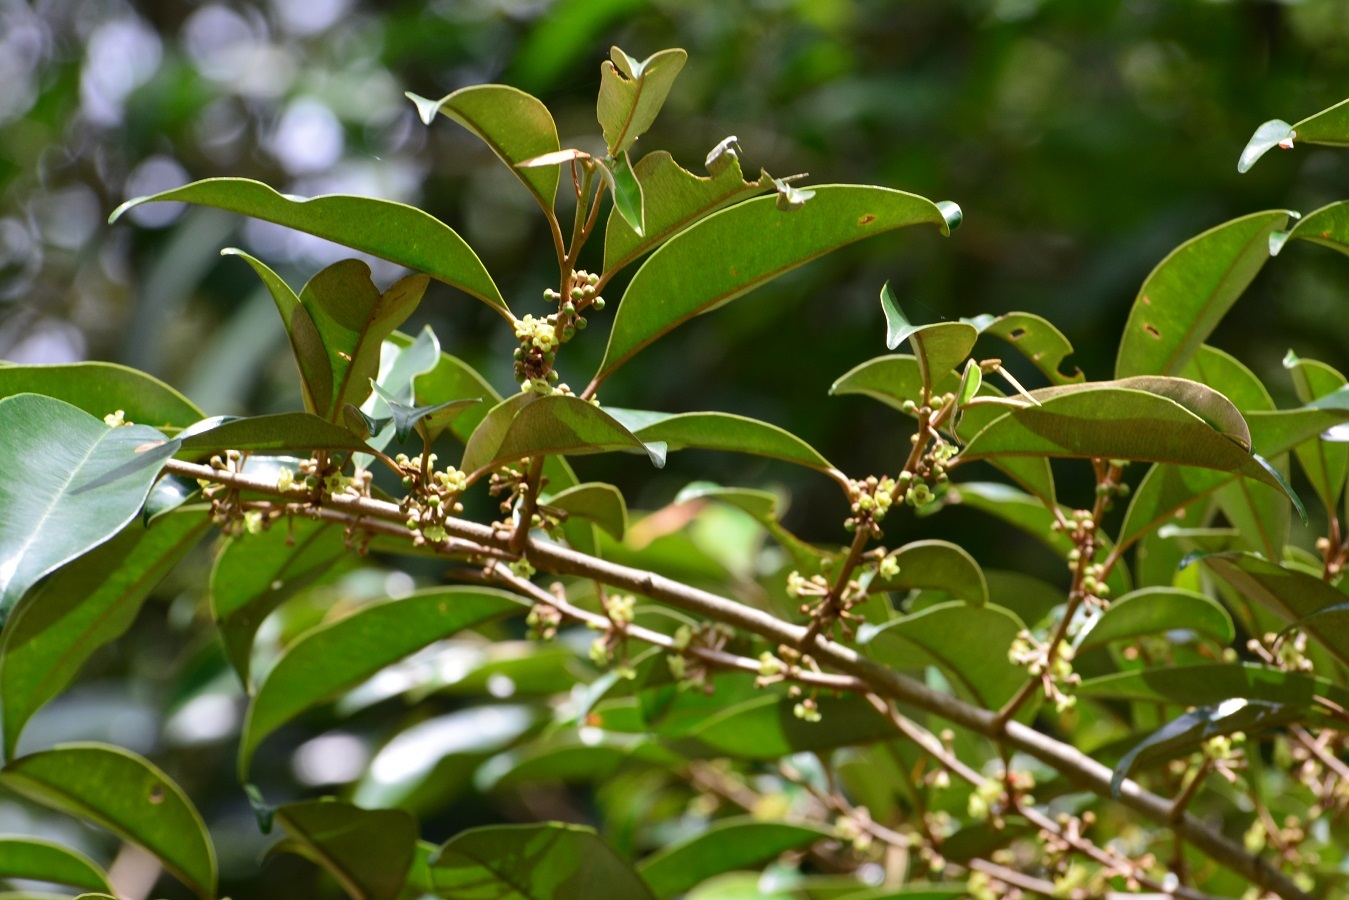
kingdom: Plantae
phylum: Tracheophyta
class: Magnoliopsida
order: Ericales
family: Sapotaceae
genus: Chrysophyllum
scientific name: Chrysophyllum mexicanum
